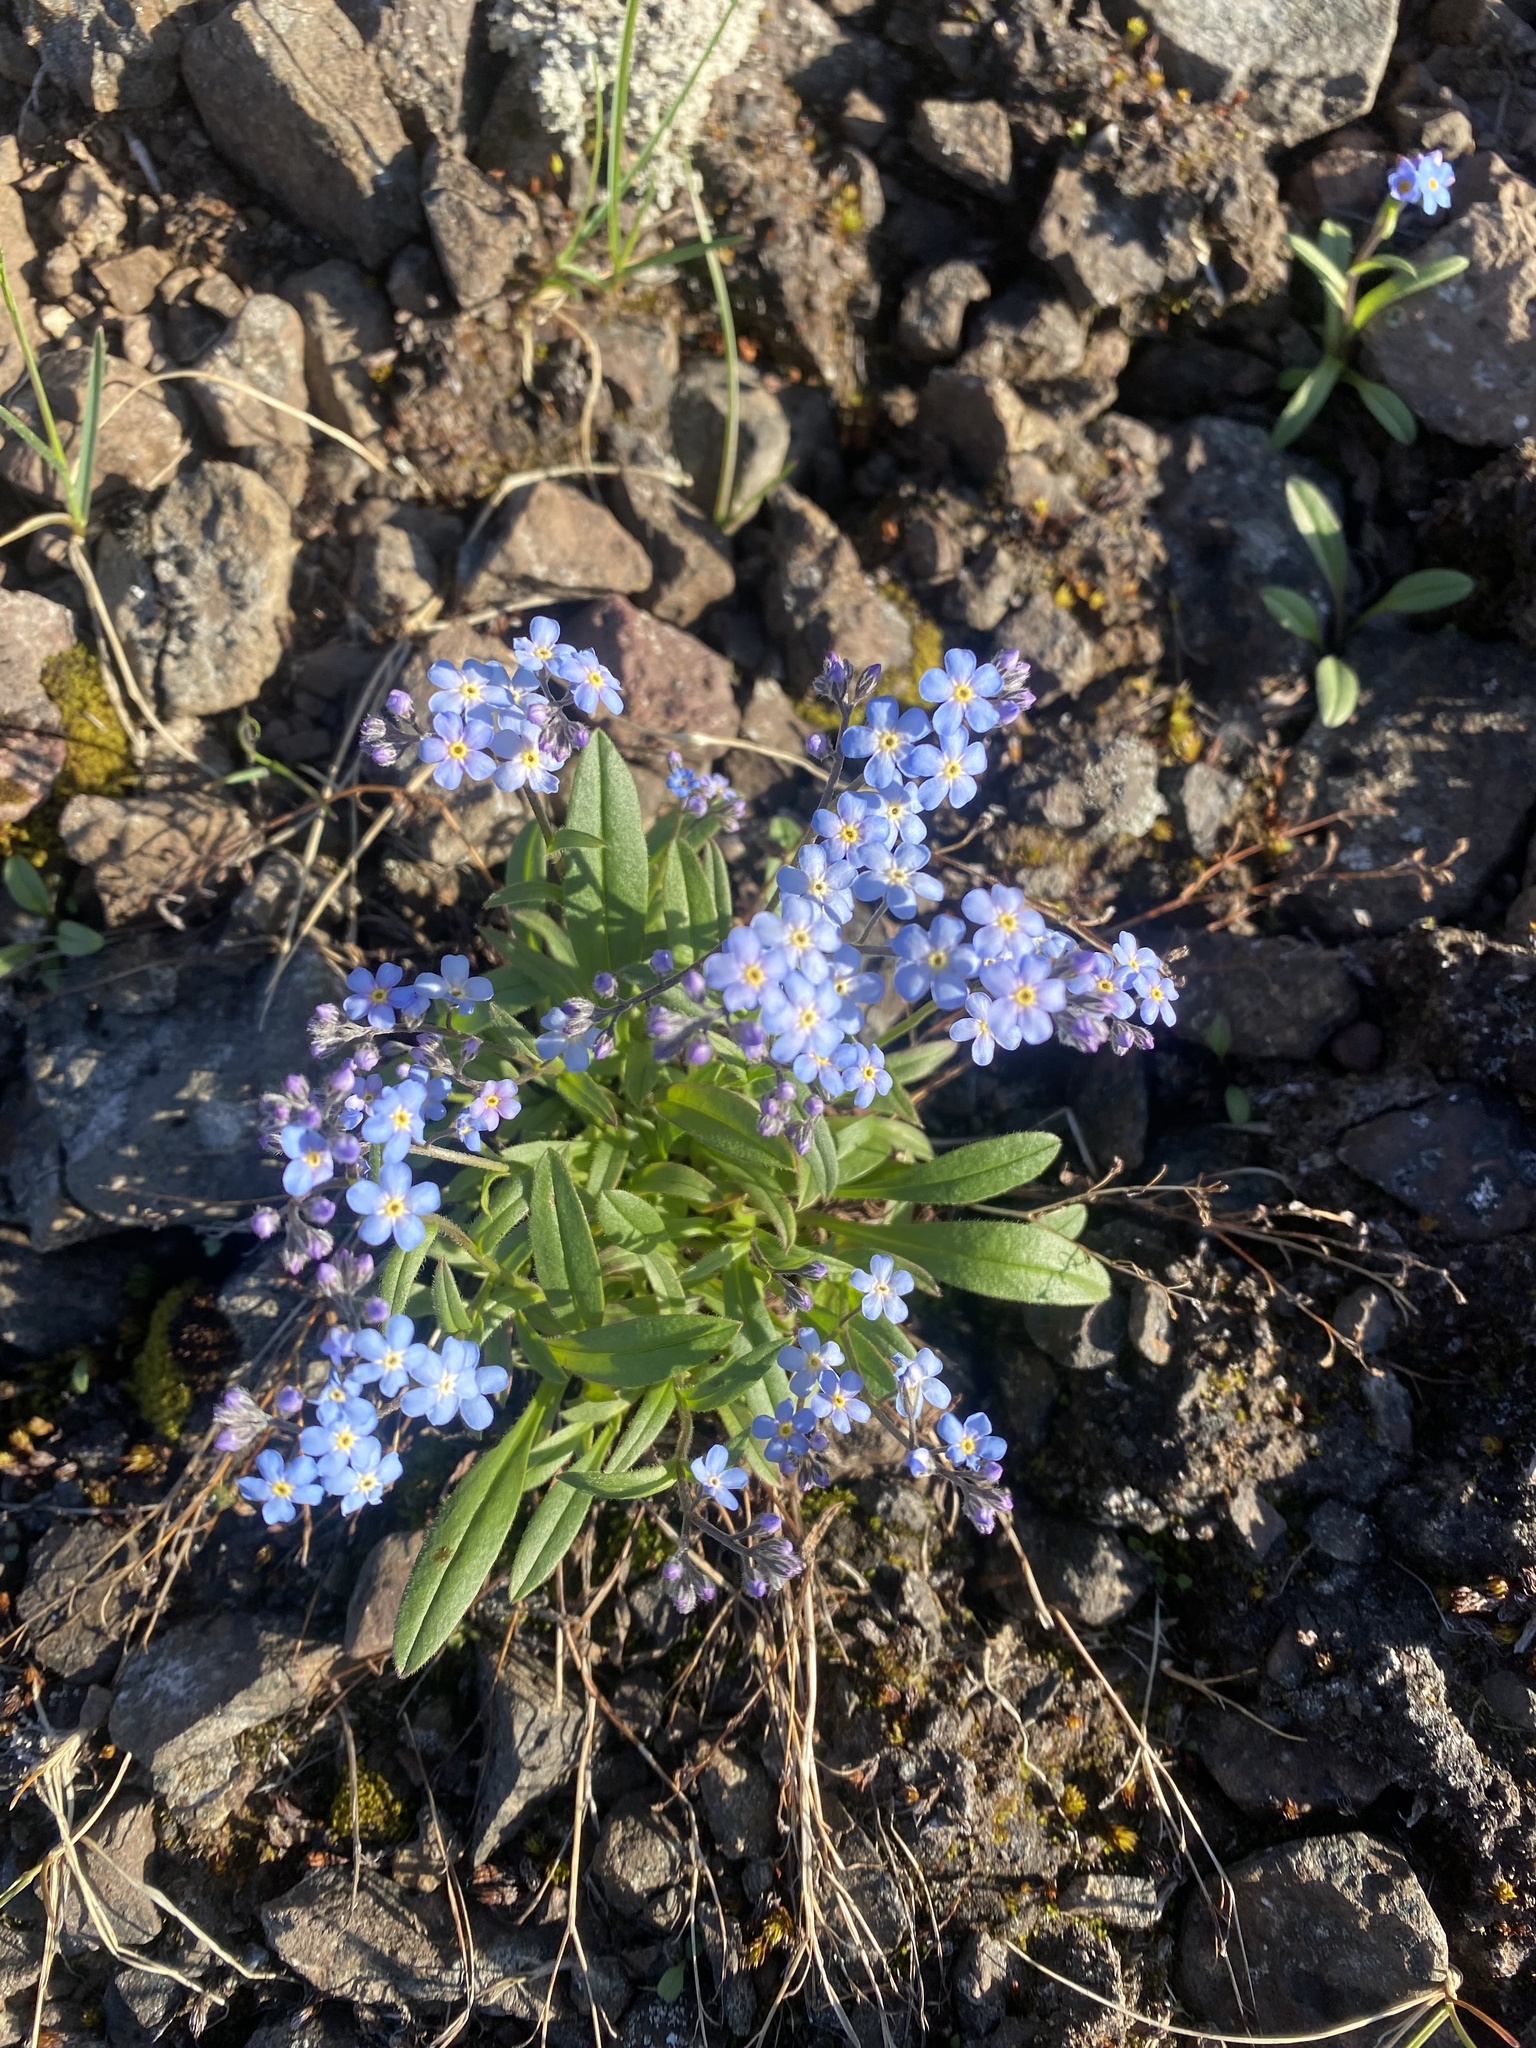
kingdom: Plantae
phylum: Tracheophyta
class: Magnoliopsida
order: Boraginales
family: Boraginaceae
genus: Myosotis
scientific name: Myosotis asiatica
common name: Asian forget-me-not
